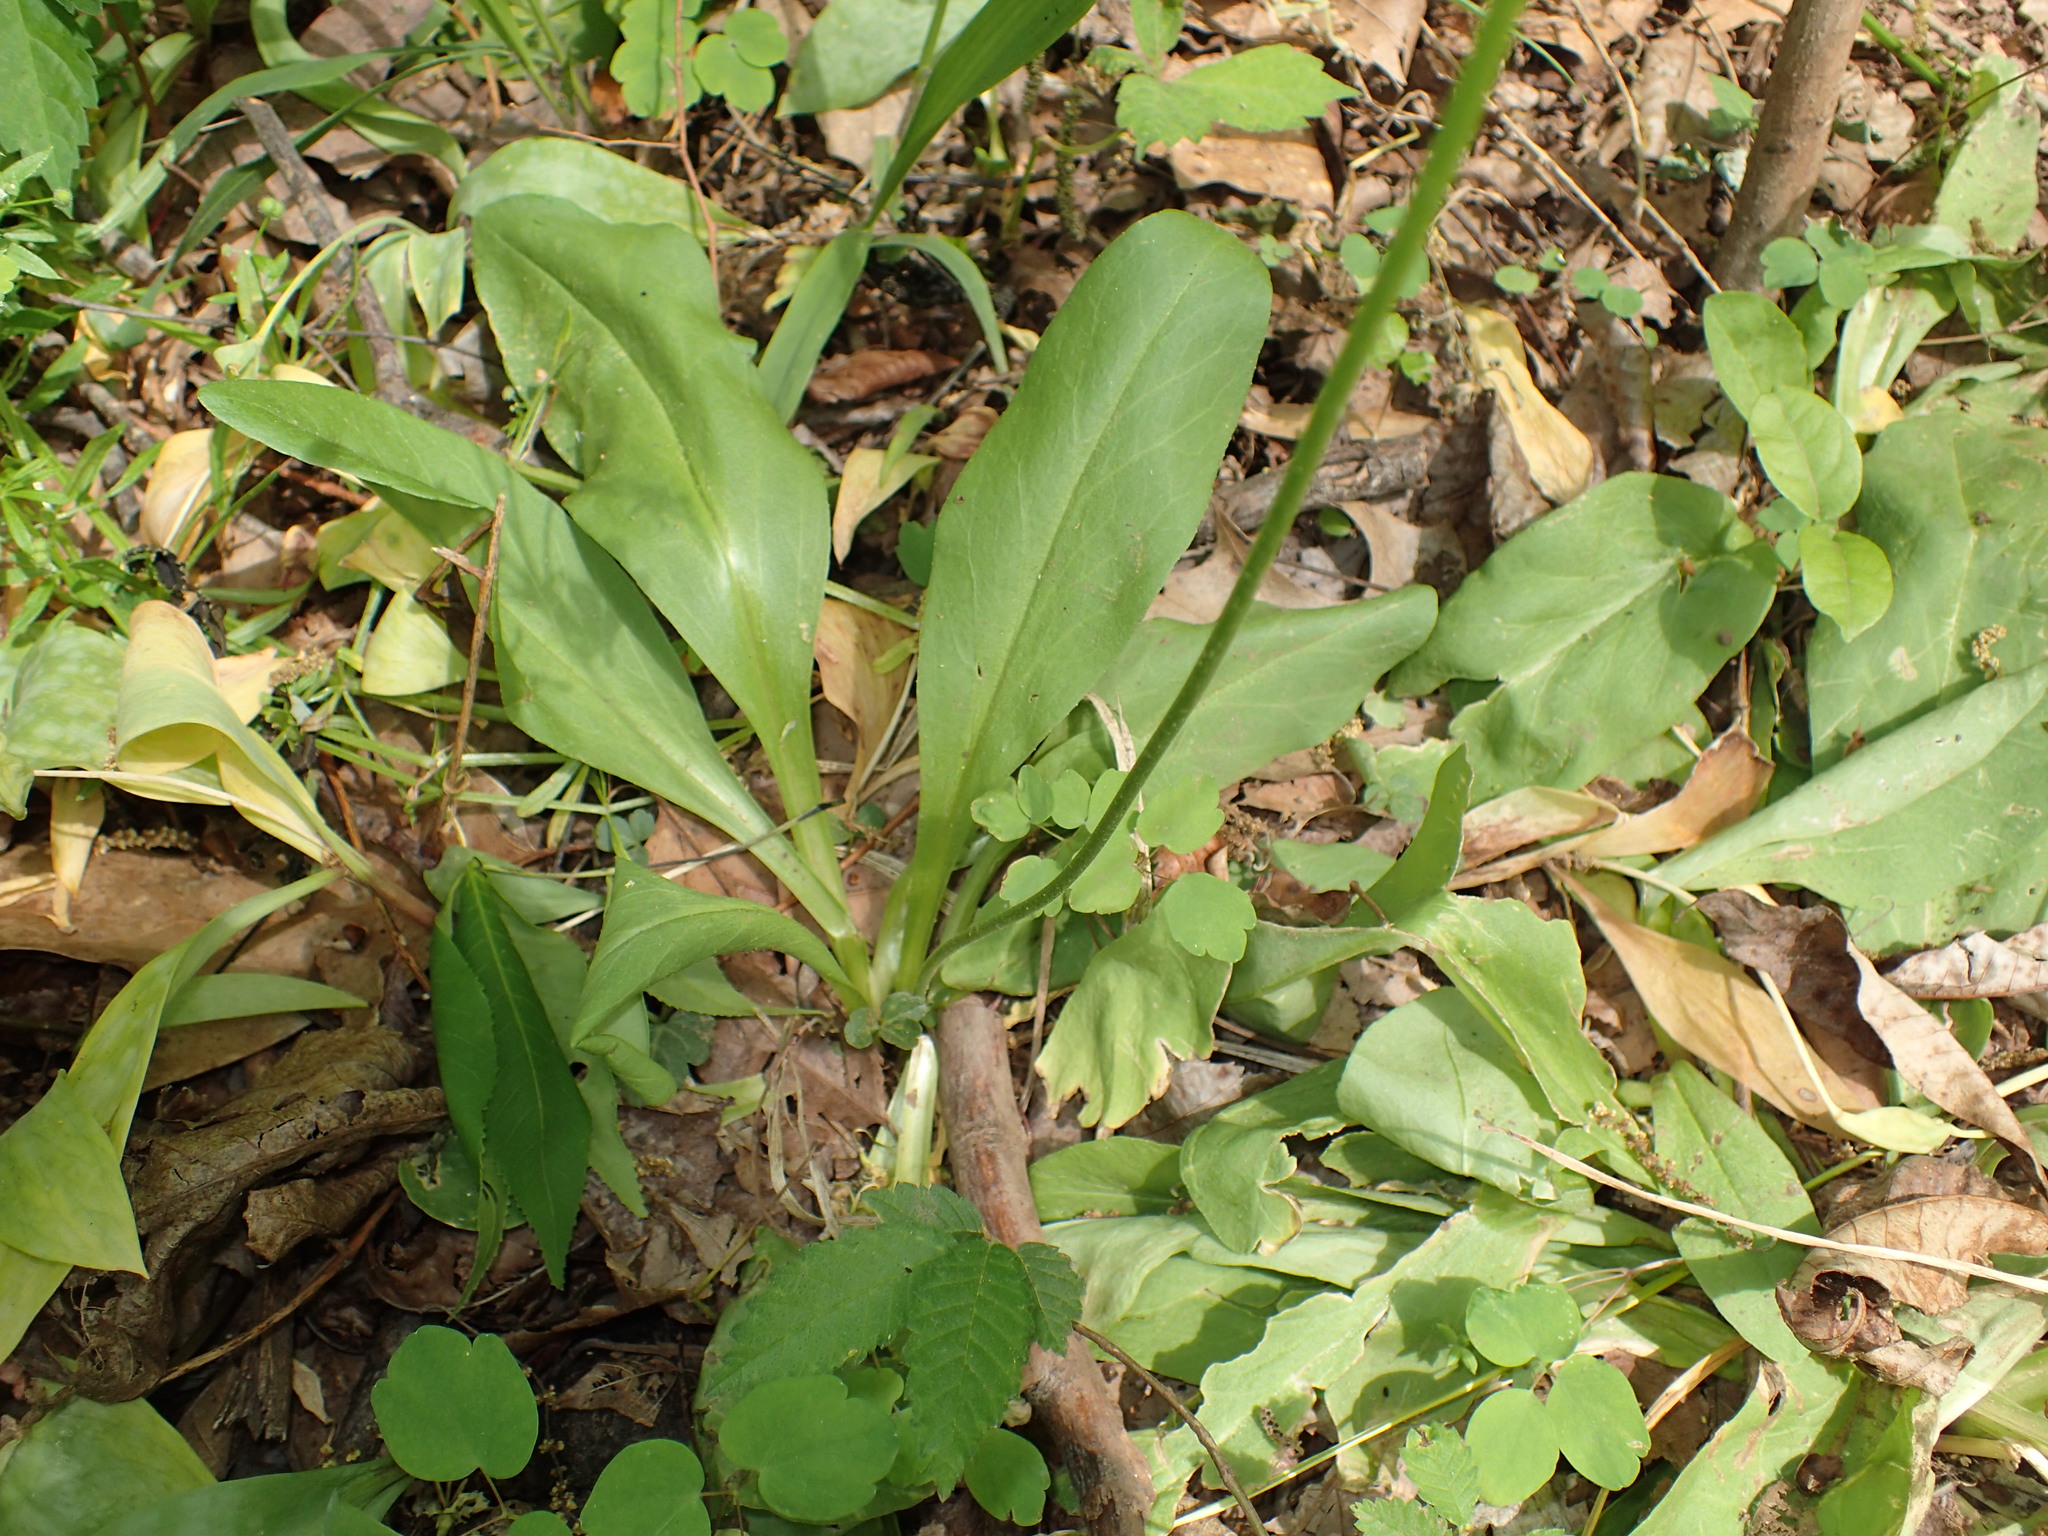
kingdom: Plantae
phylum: Tracheophyta
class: Magnoliopsida
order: Ericales
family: Primulaceae
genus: Dodecatheon
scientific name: Dodecatheon meadia
